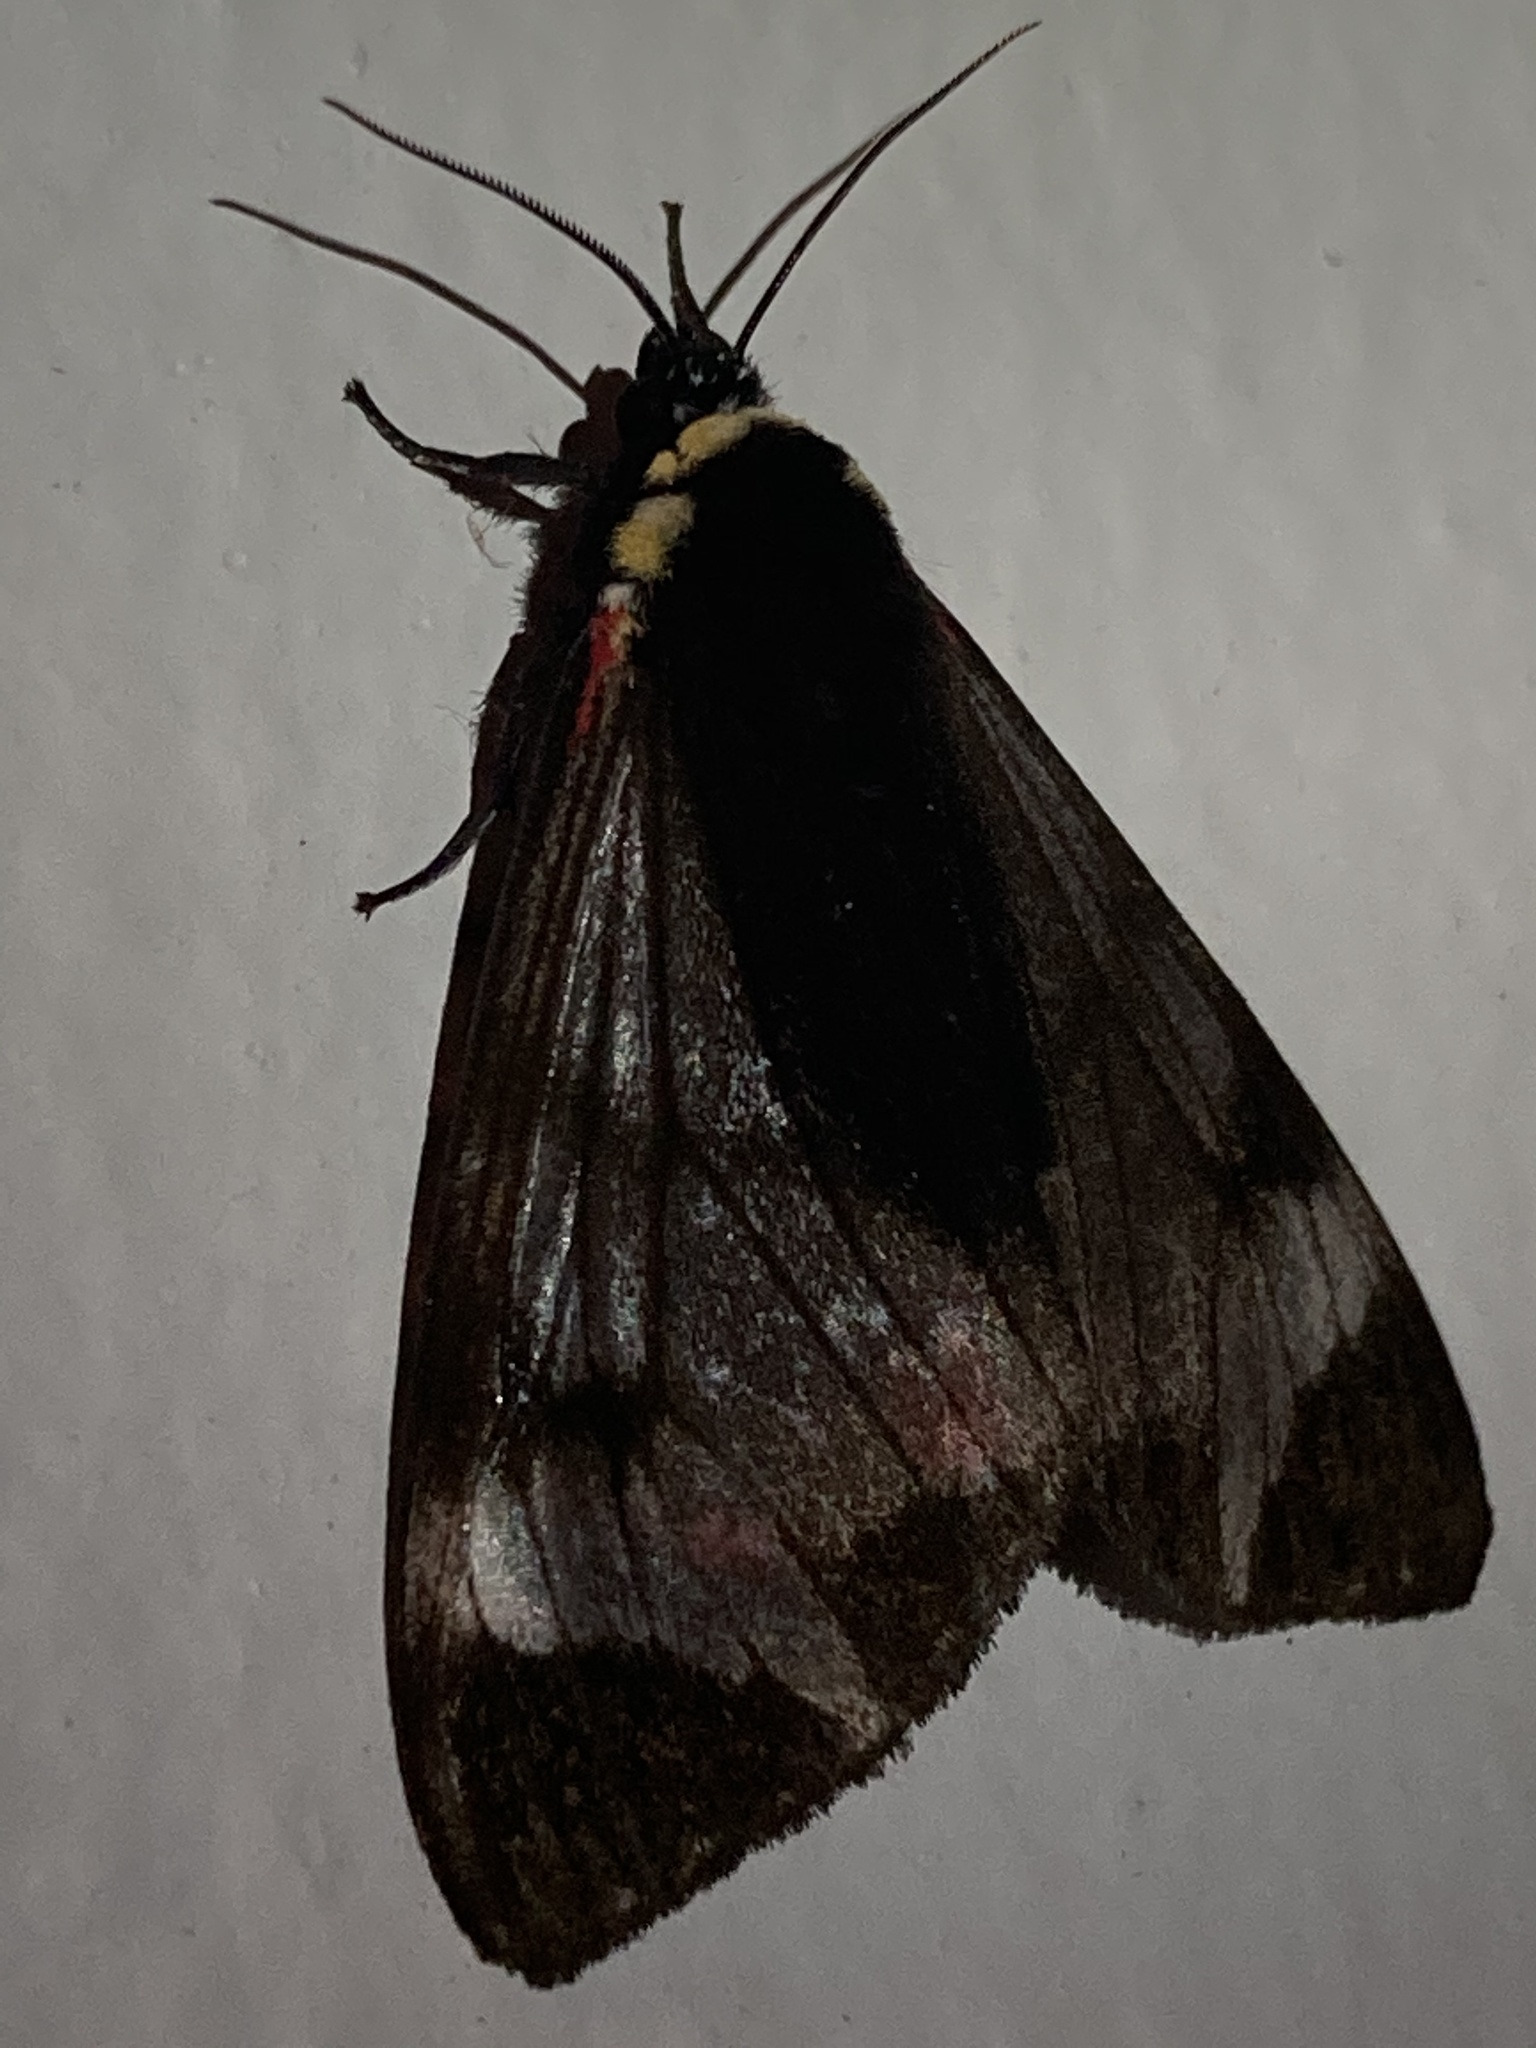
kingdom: Animalia
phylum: Arthropoda
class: Insecta
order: Lepidoptera
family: Erebidae
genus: Dysschema
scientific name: Dysschema leucophaea
